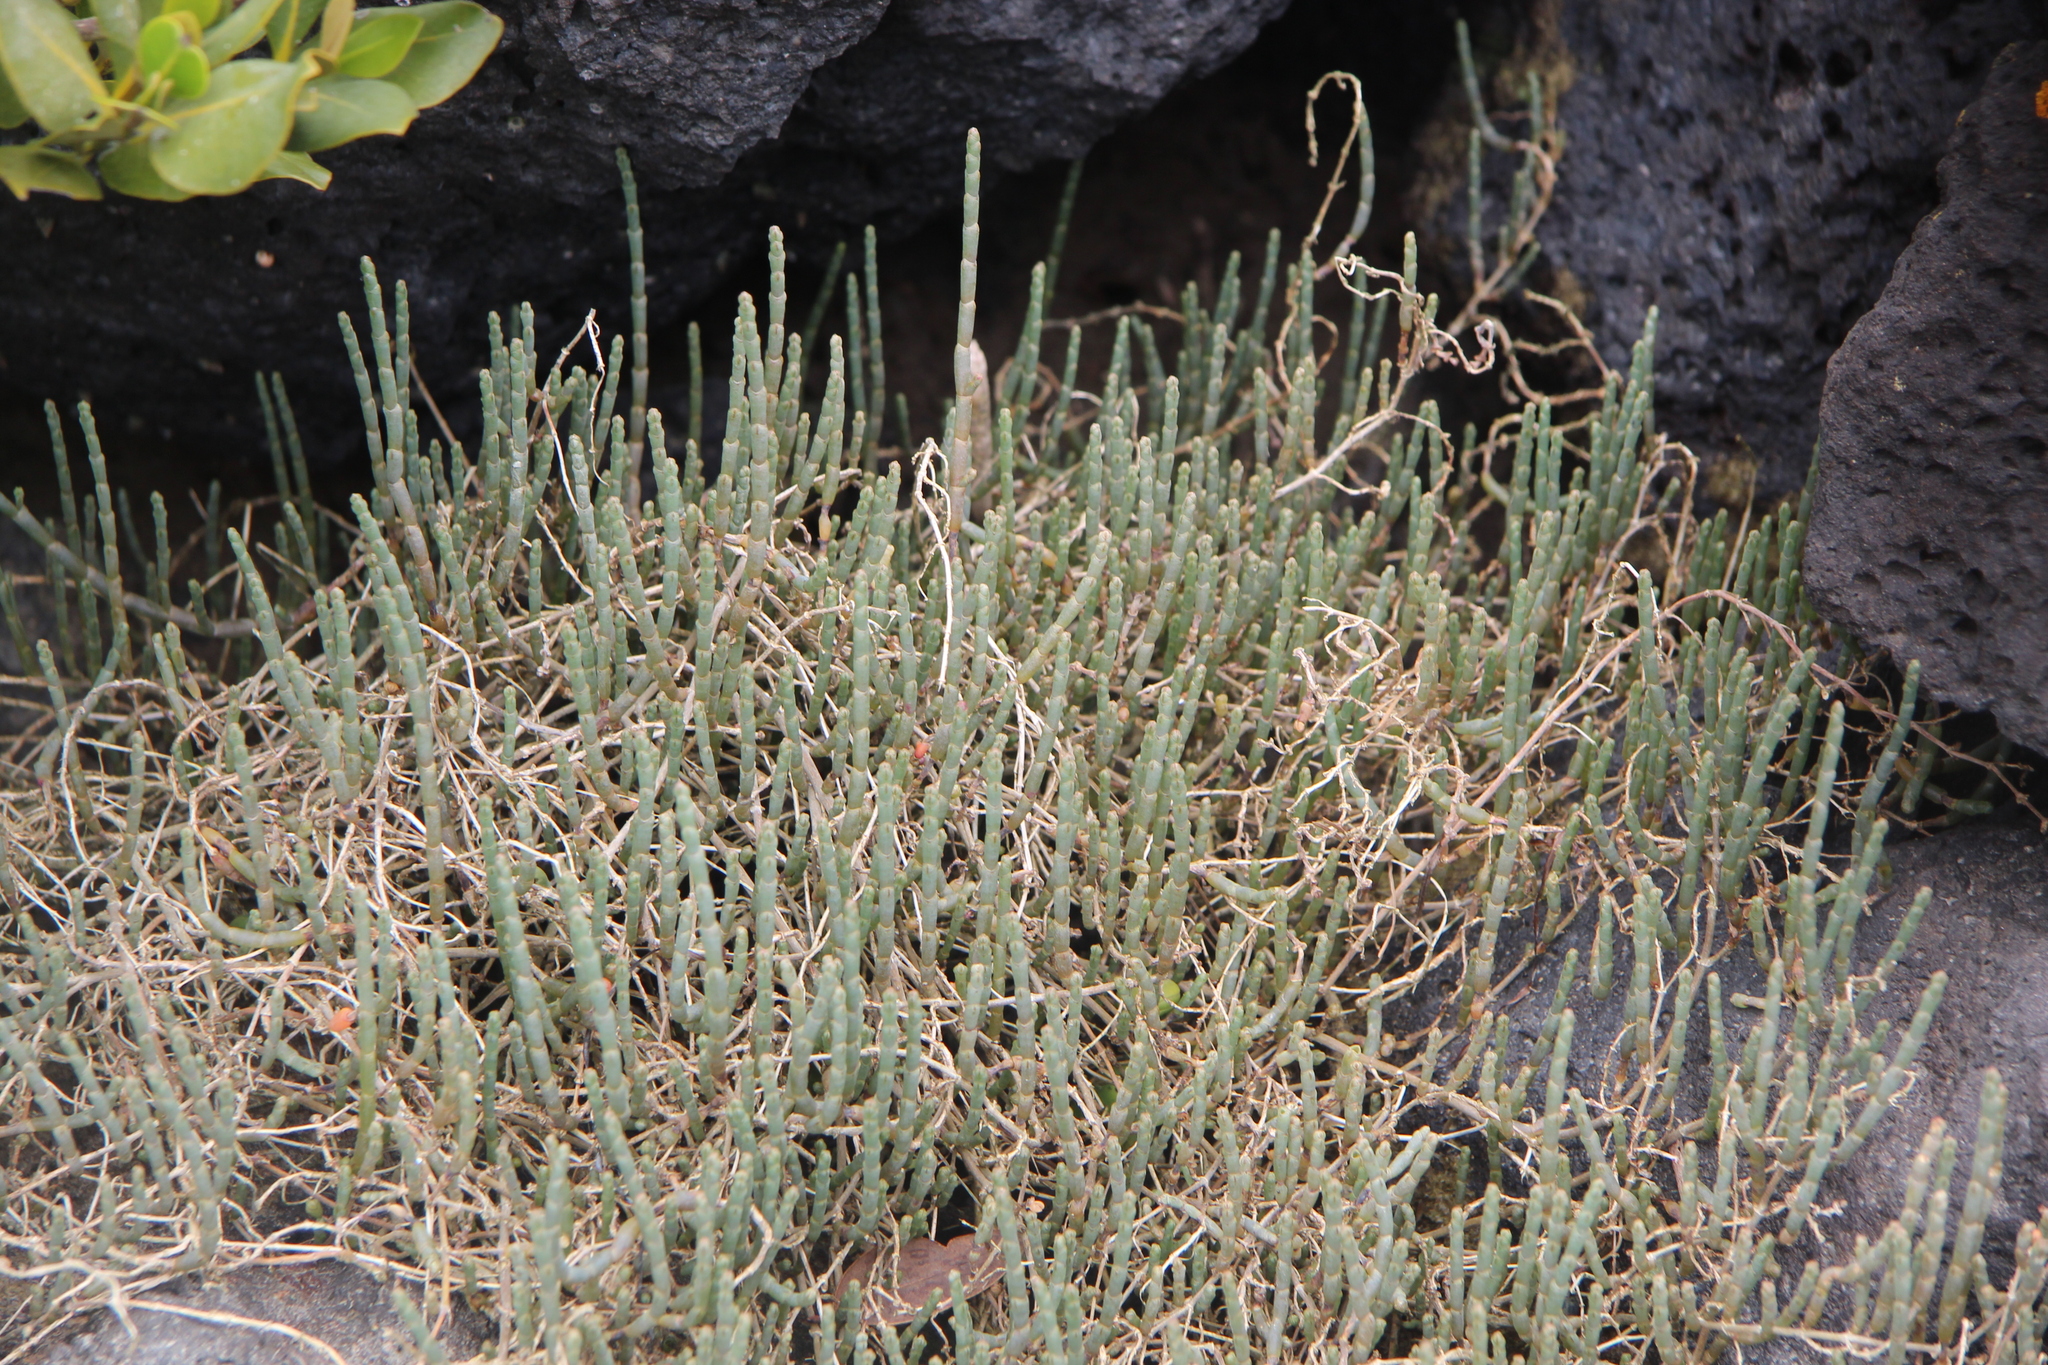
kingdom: Plantae
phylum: Tracheophyta
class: Magnoliopsida
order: Caryophyllales
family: Amaranthaceae
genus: Salicornia
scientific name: Salicornia quinqueflora
